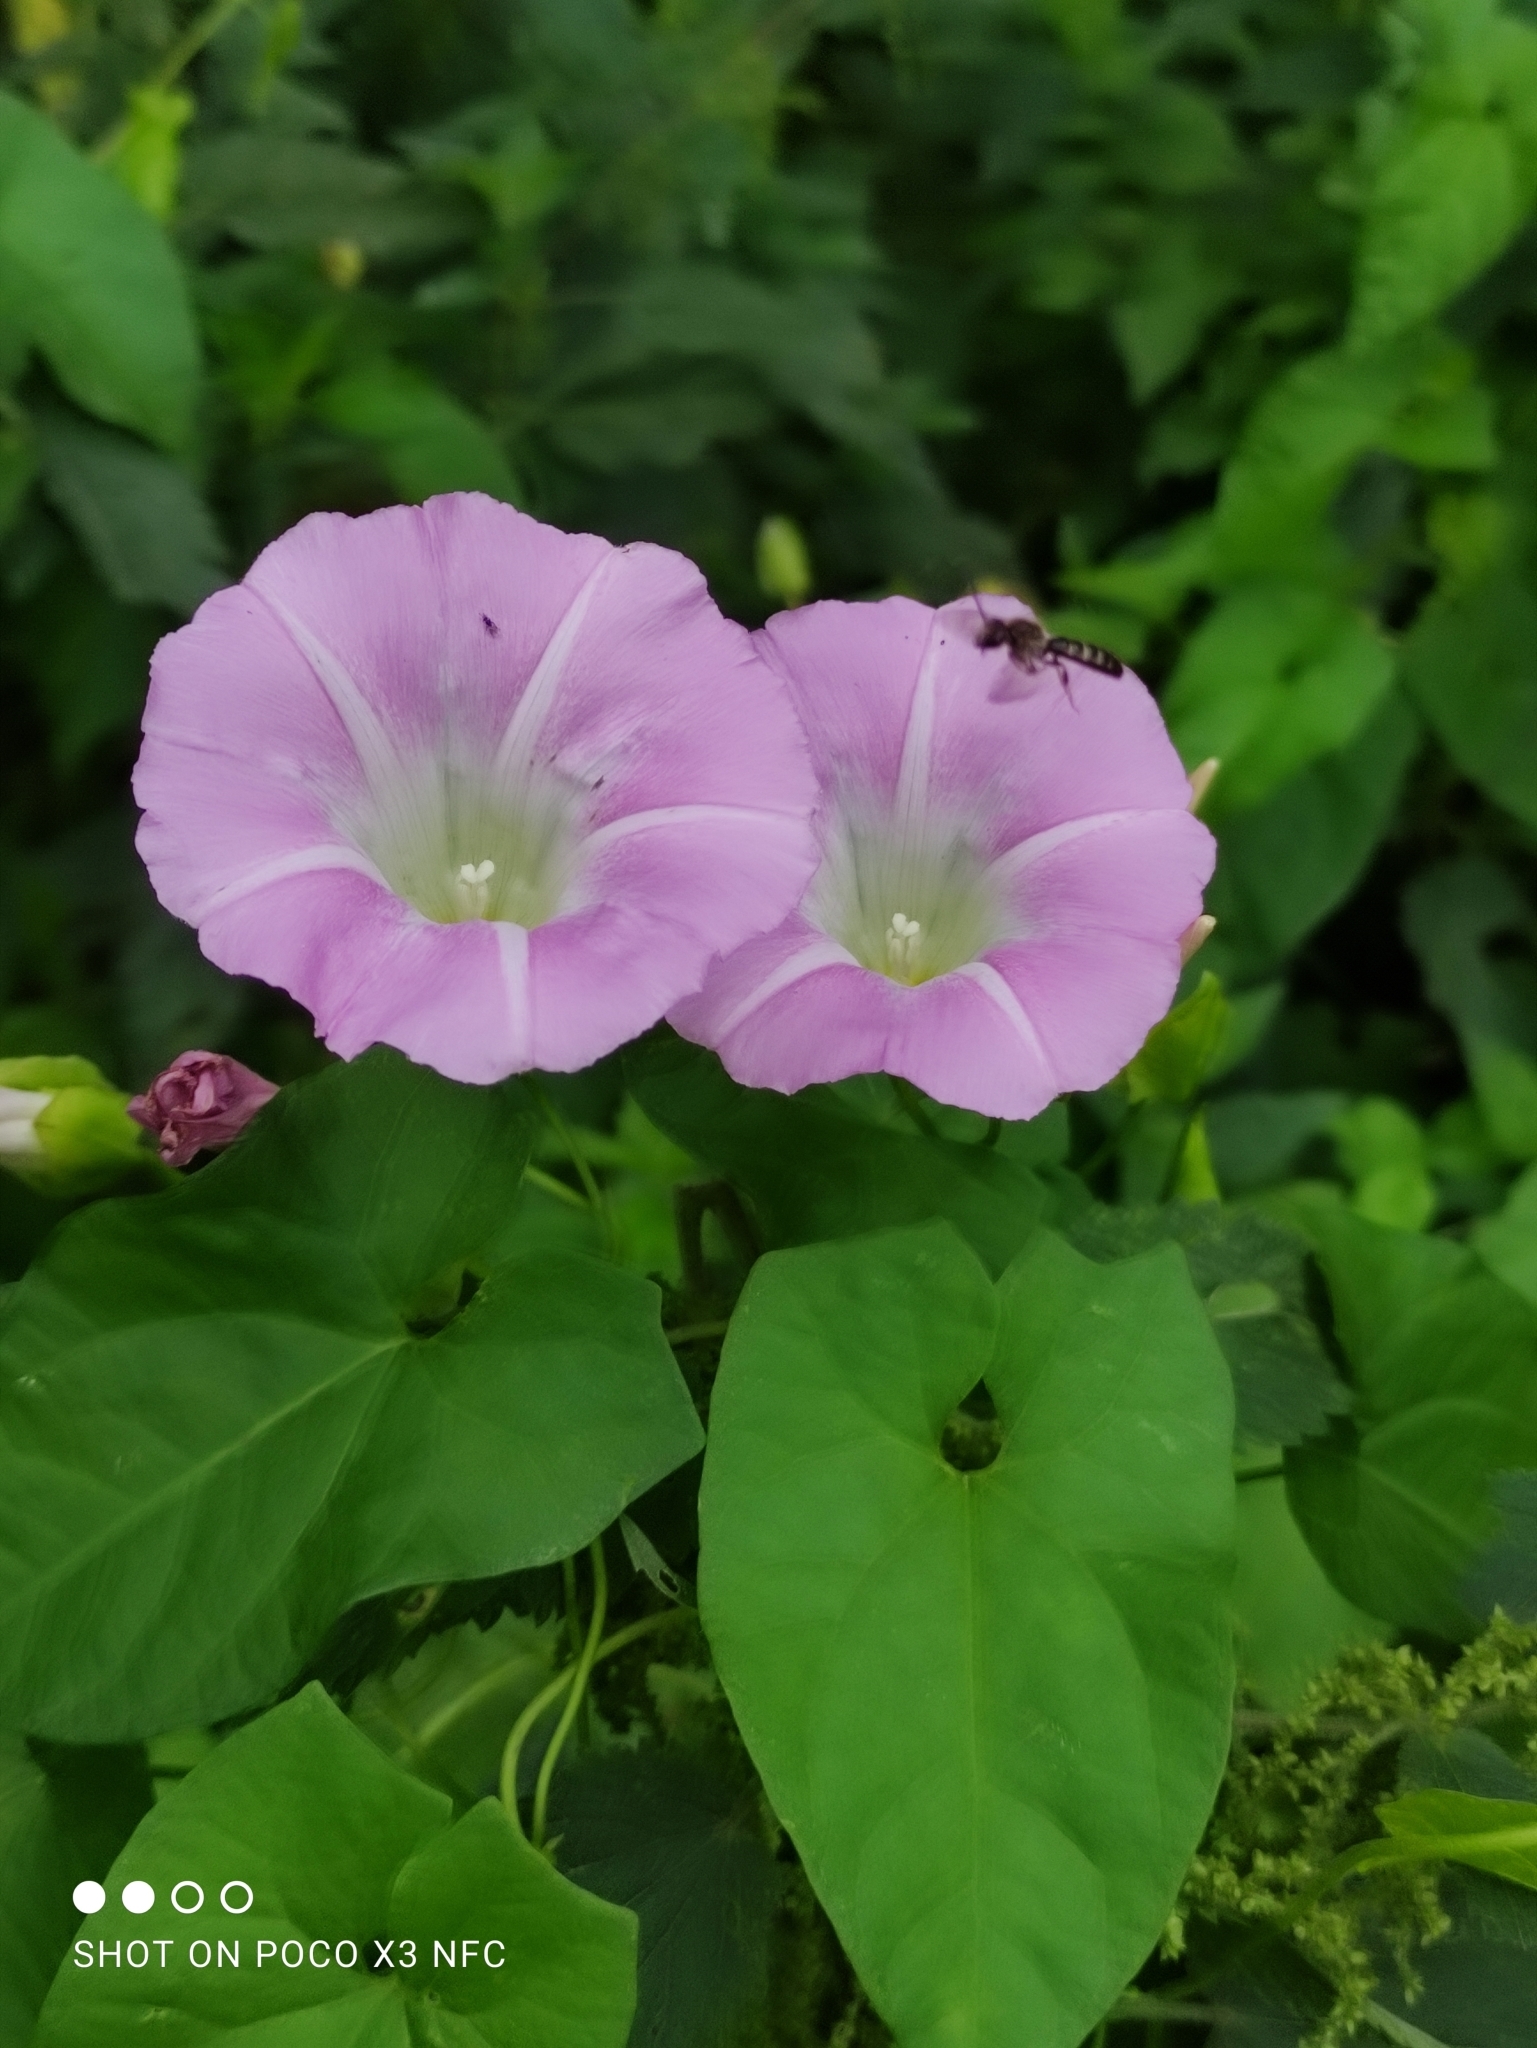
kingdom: Plantae
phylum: Tracheophyta
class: Magnoliopsida
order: Solanales
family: Convolvulaceae
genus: Calystegia
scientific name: Calystegia sepium
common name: Hedge bindweed
